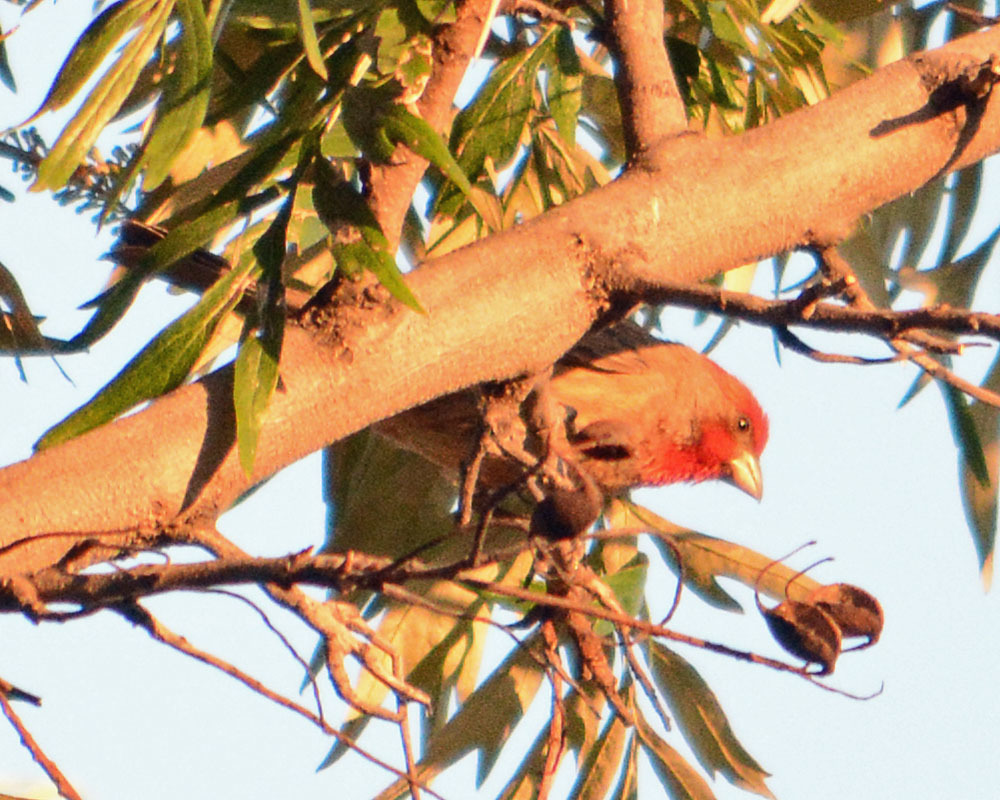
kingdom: Animalia
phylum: Chordata
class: Aves
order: Passeriformes
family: Fringillidae
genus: Haemorhous
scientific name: Haemorhous mexicanus
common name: House finch
